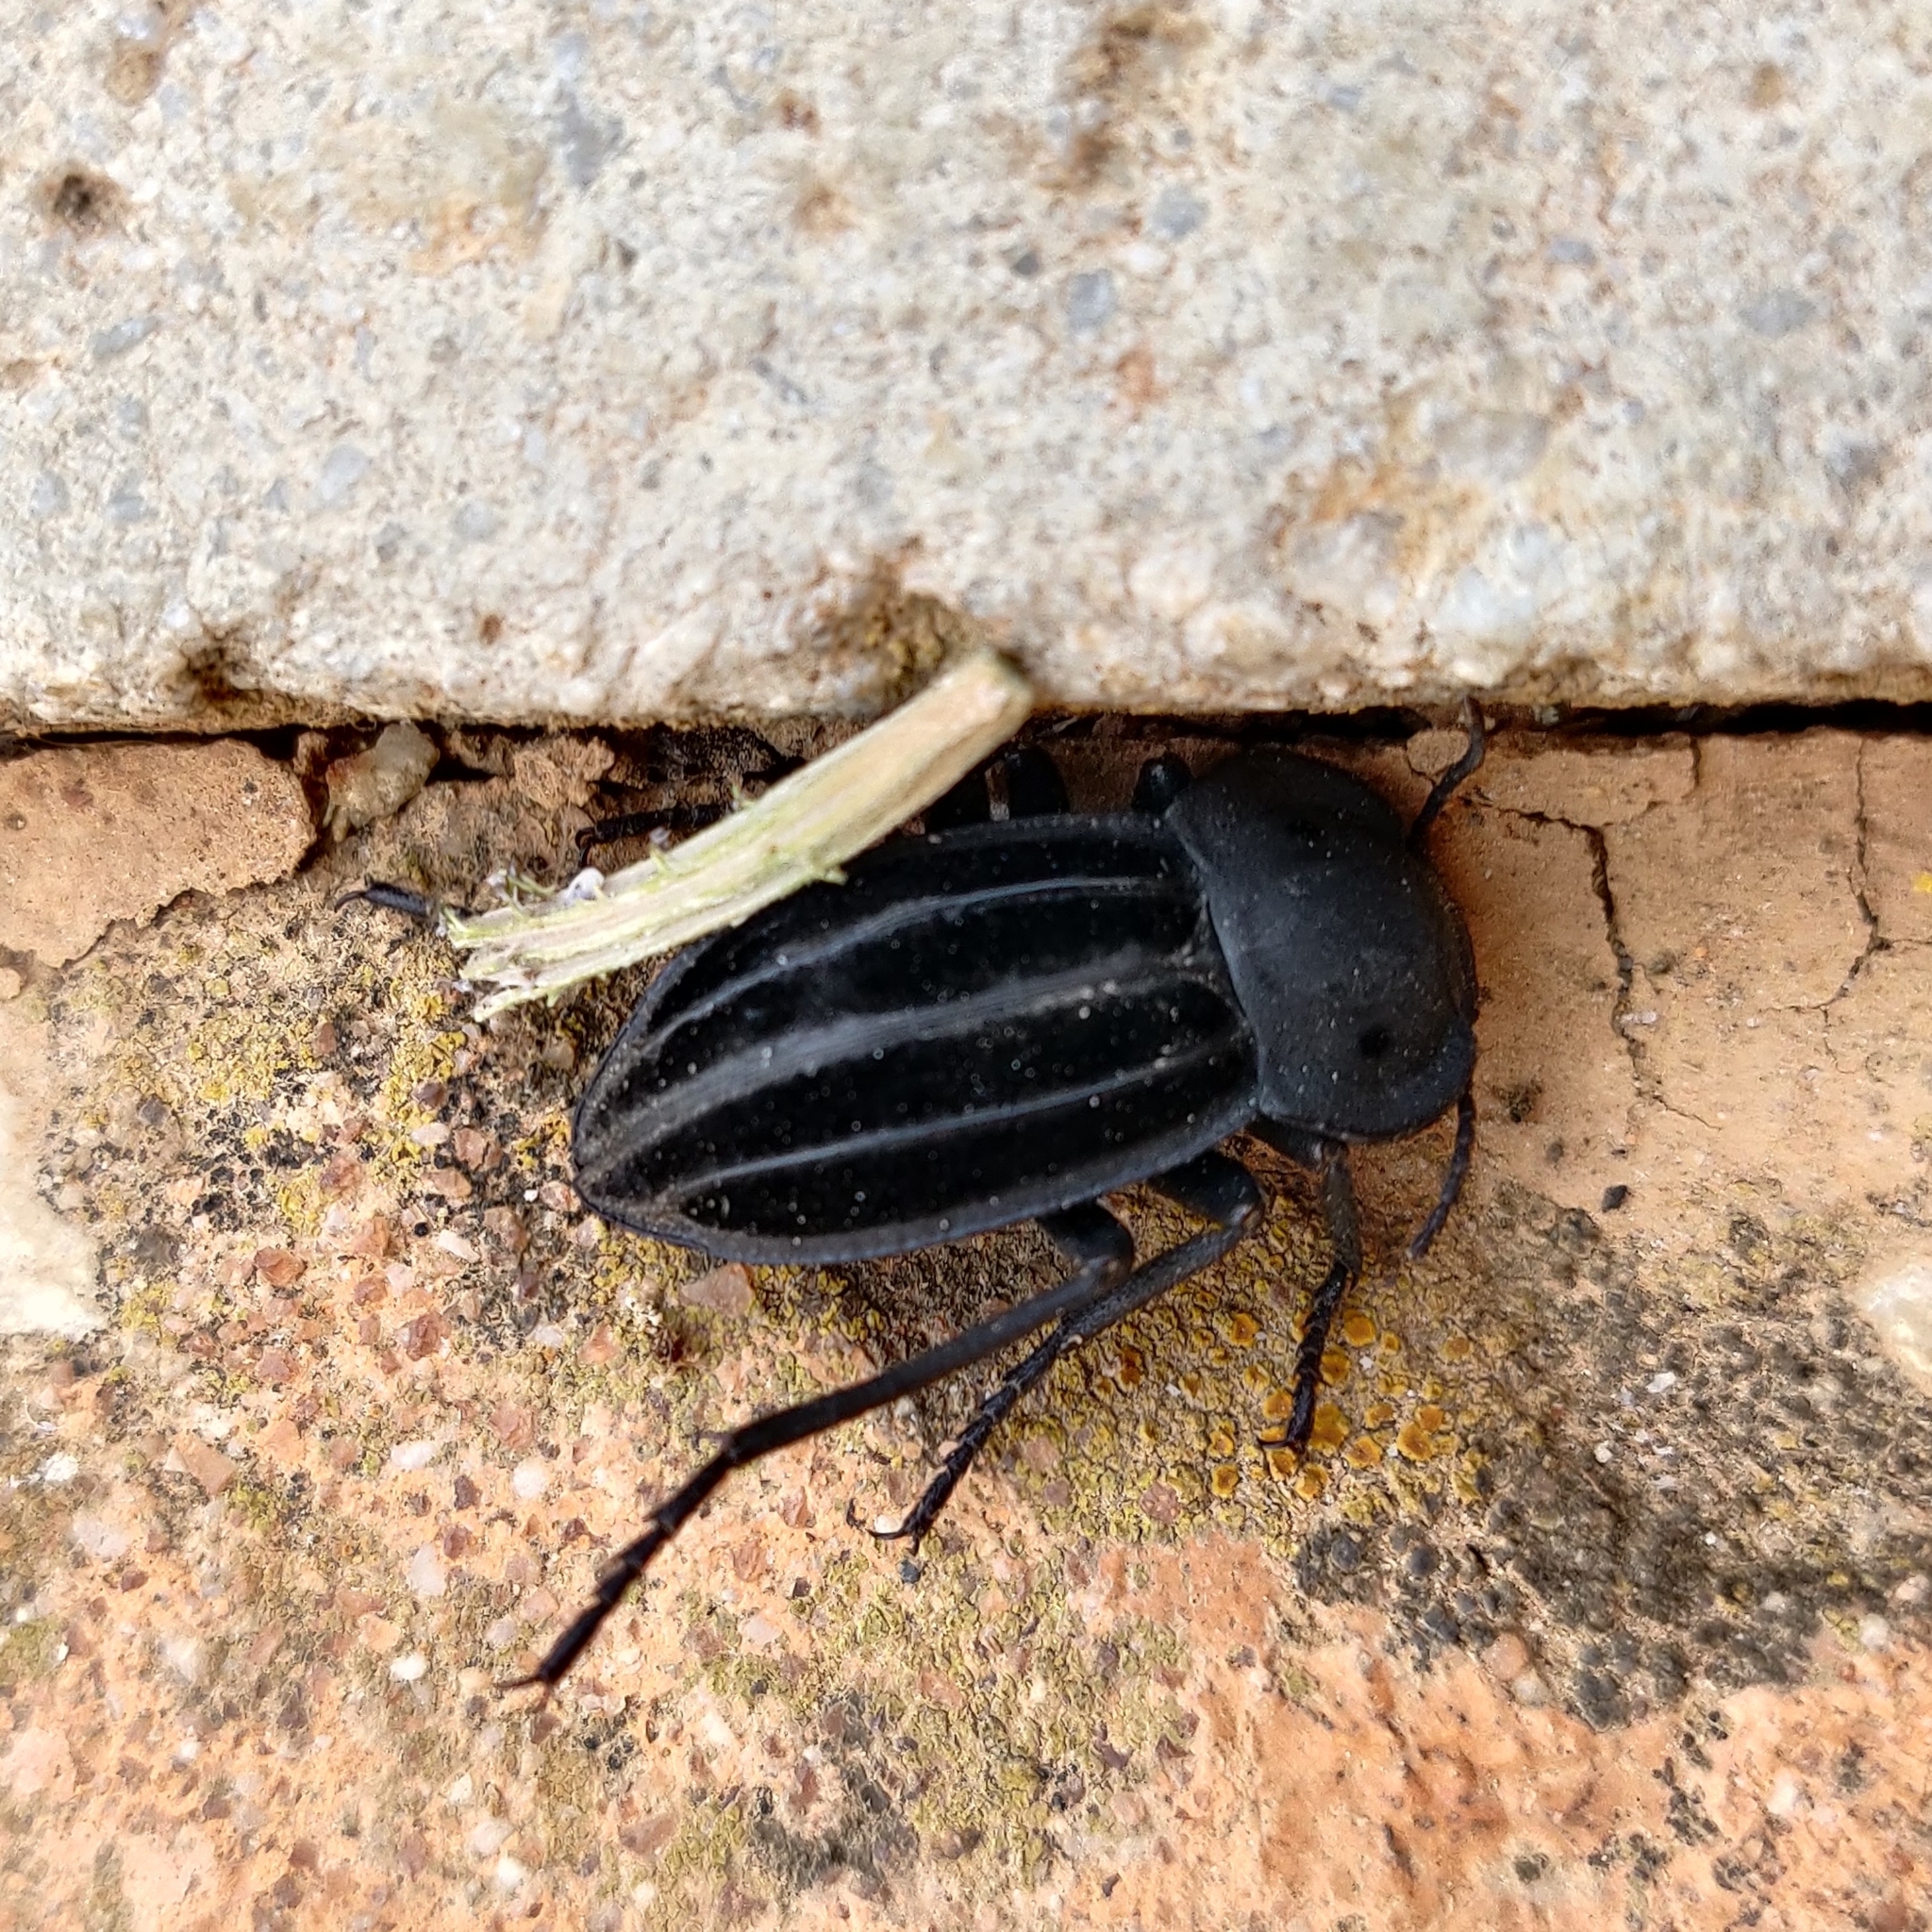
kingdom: Animalia
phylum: Arthropoda
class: Insecta
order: Coleoptera
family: Tenebrionidae
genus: Alphasida
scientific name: Alphasida holosericea
